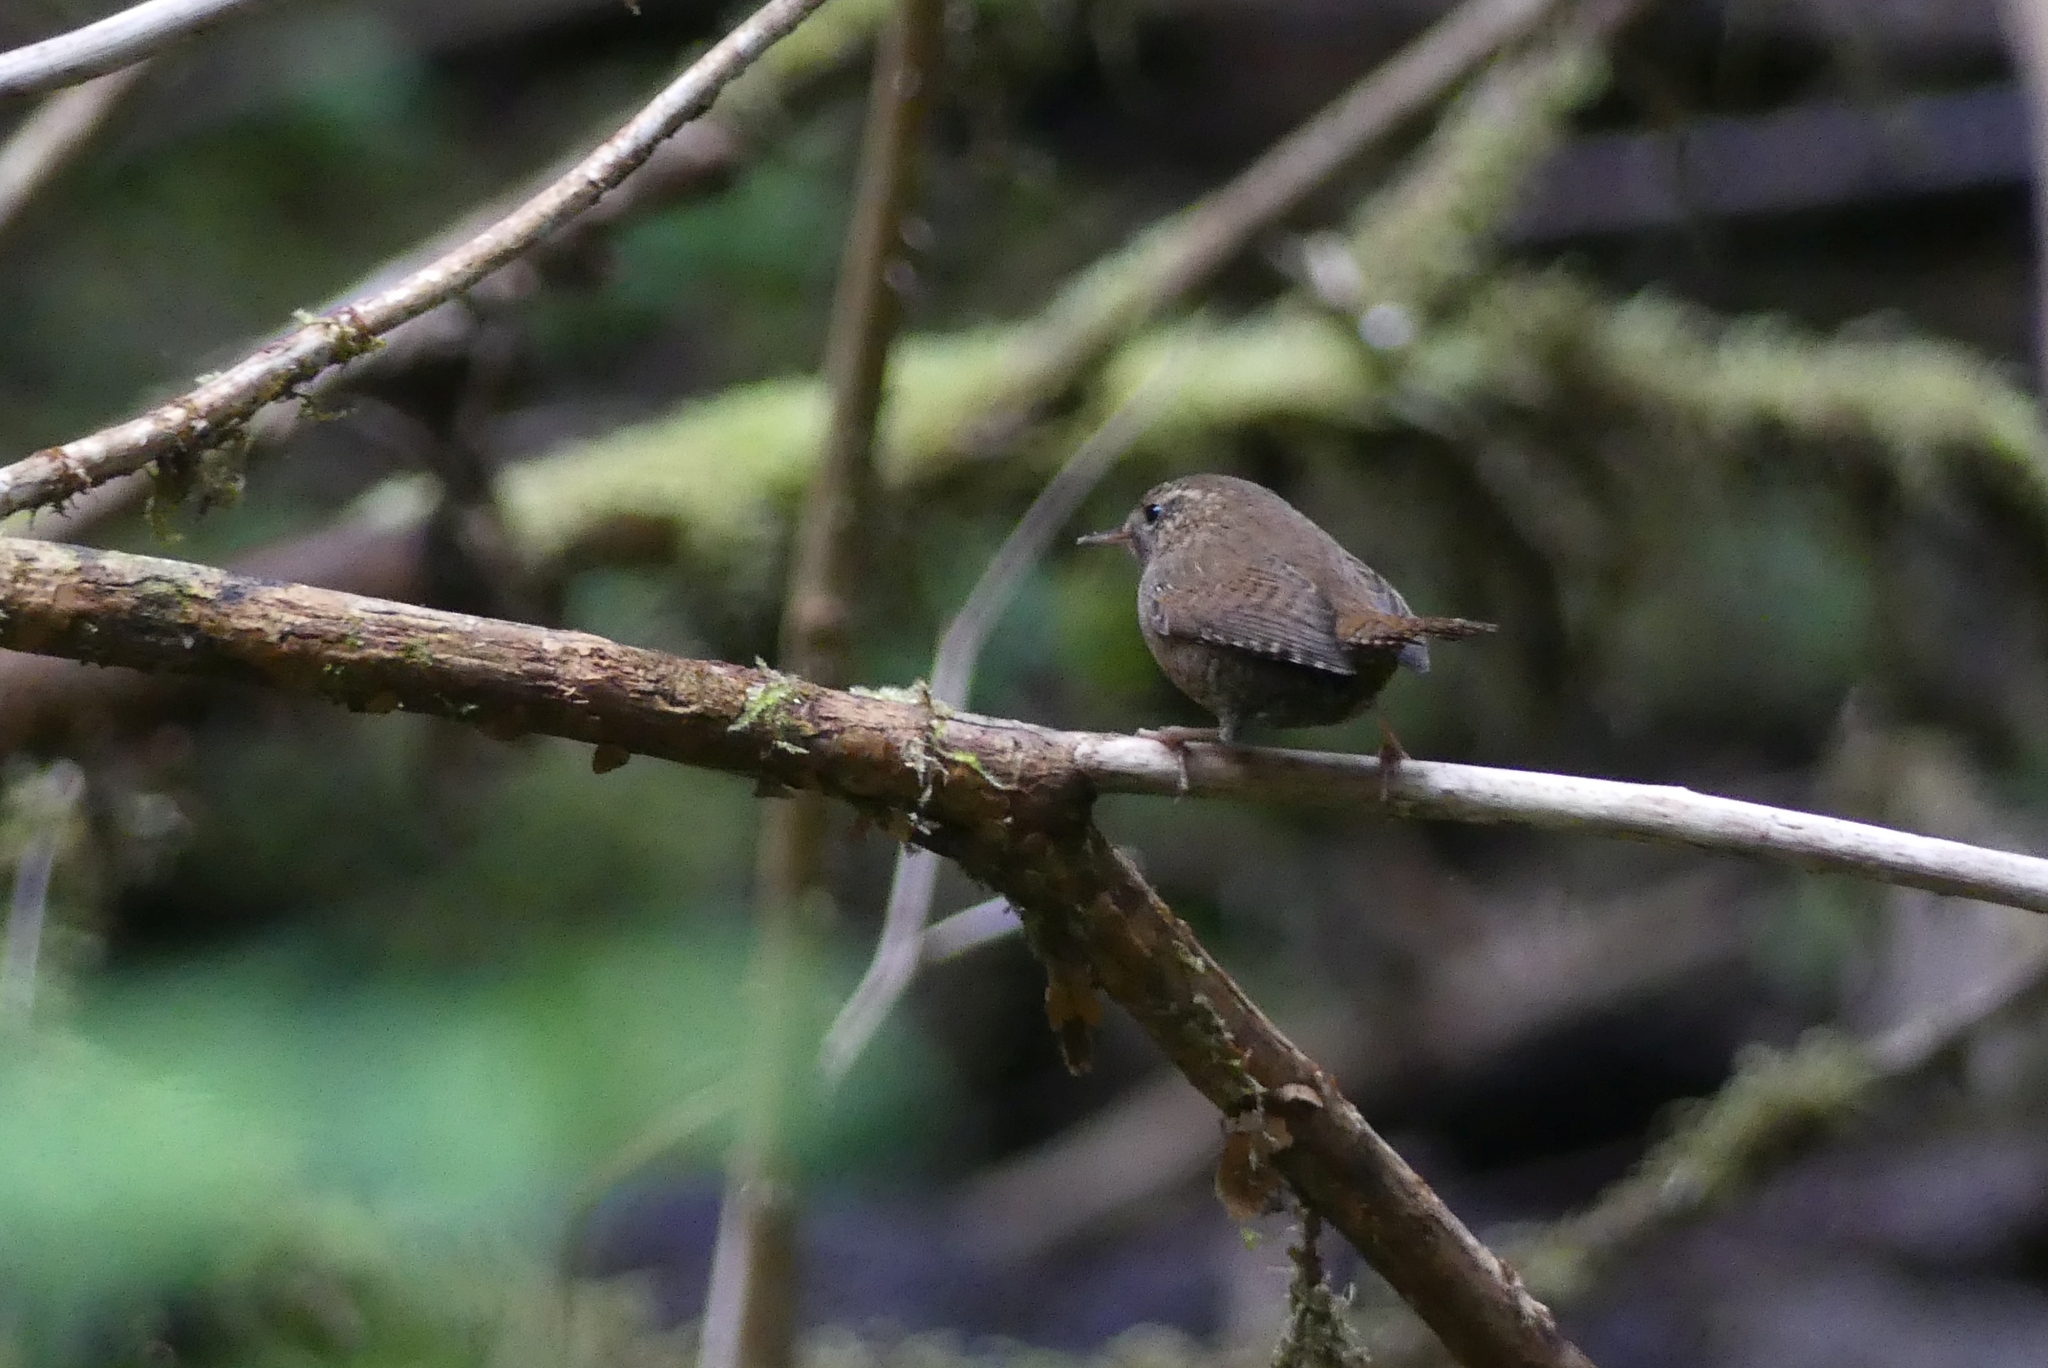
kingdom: Animalia
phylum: Chordata
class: Aves
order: Passeriformes
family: Troglodytidae
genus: Troglodytes
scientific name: Troglodytes pacificus
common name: Pacific wren
